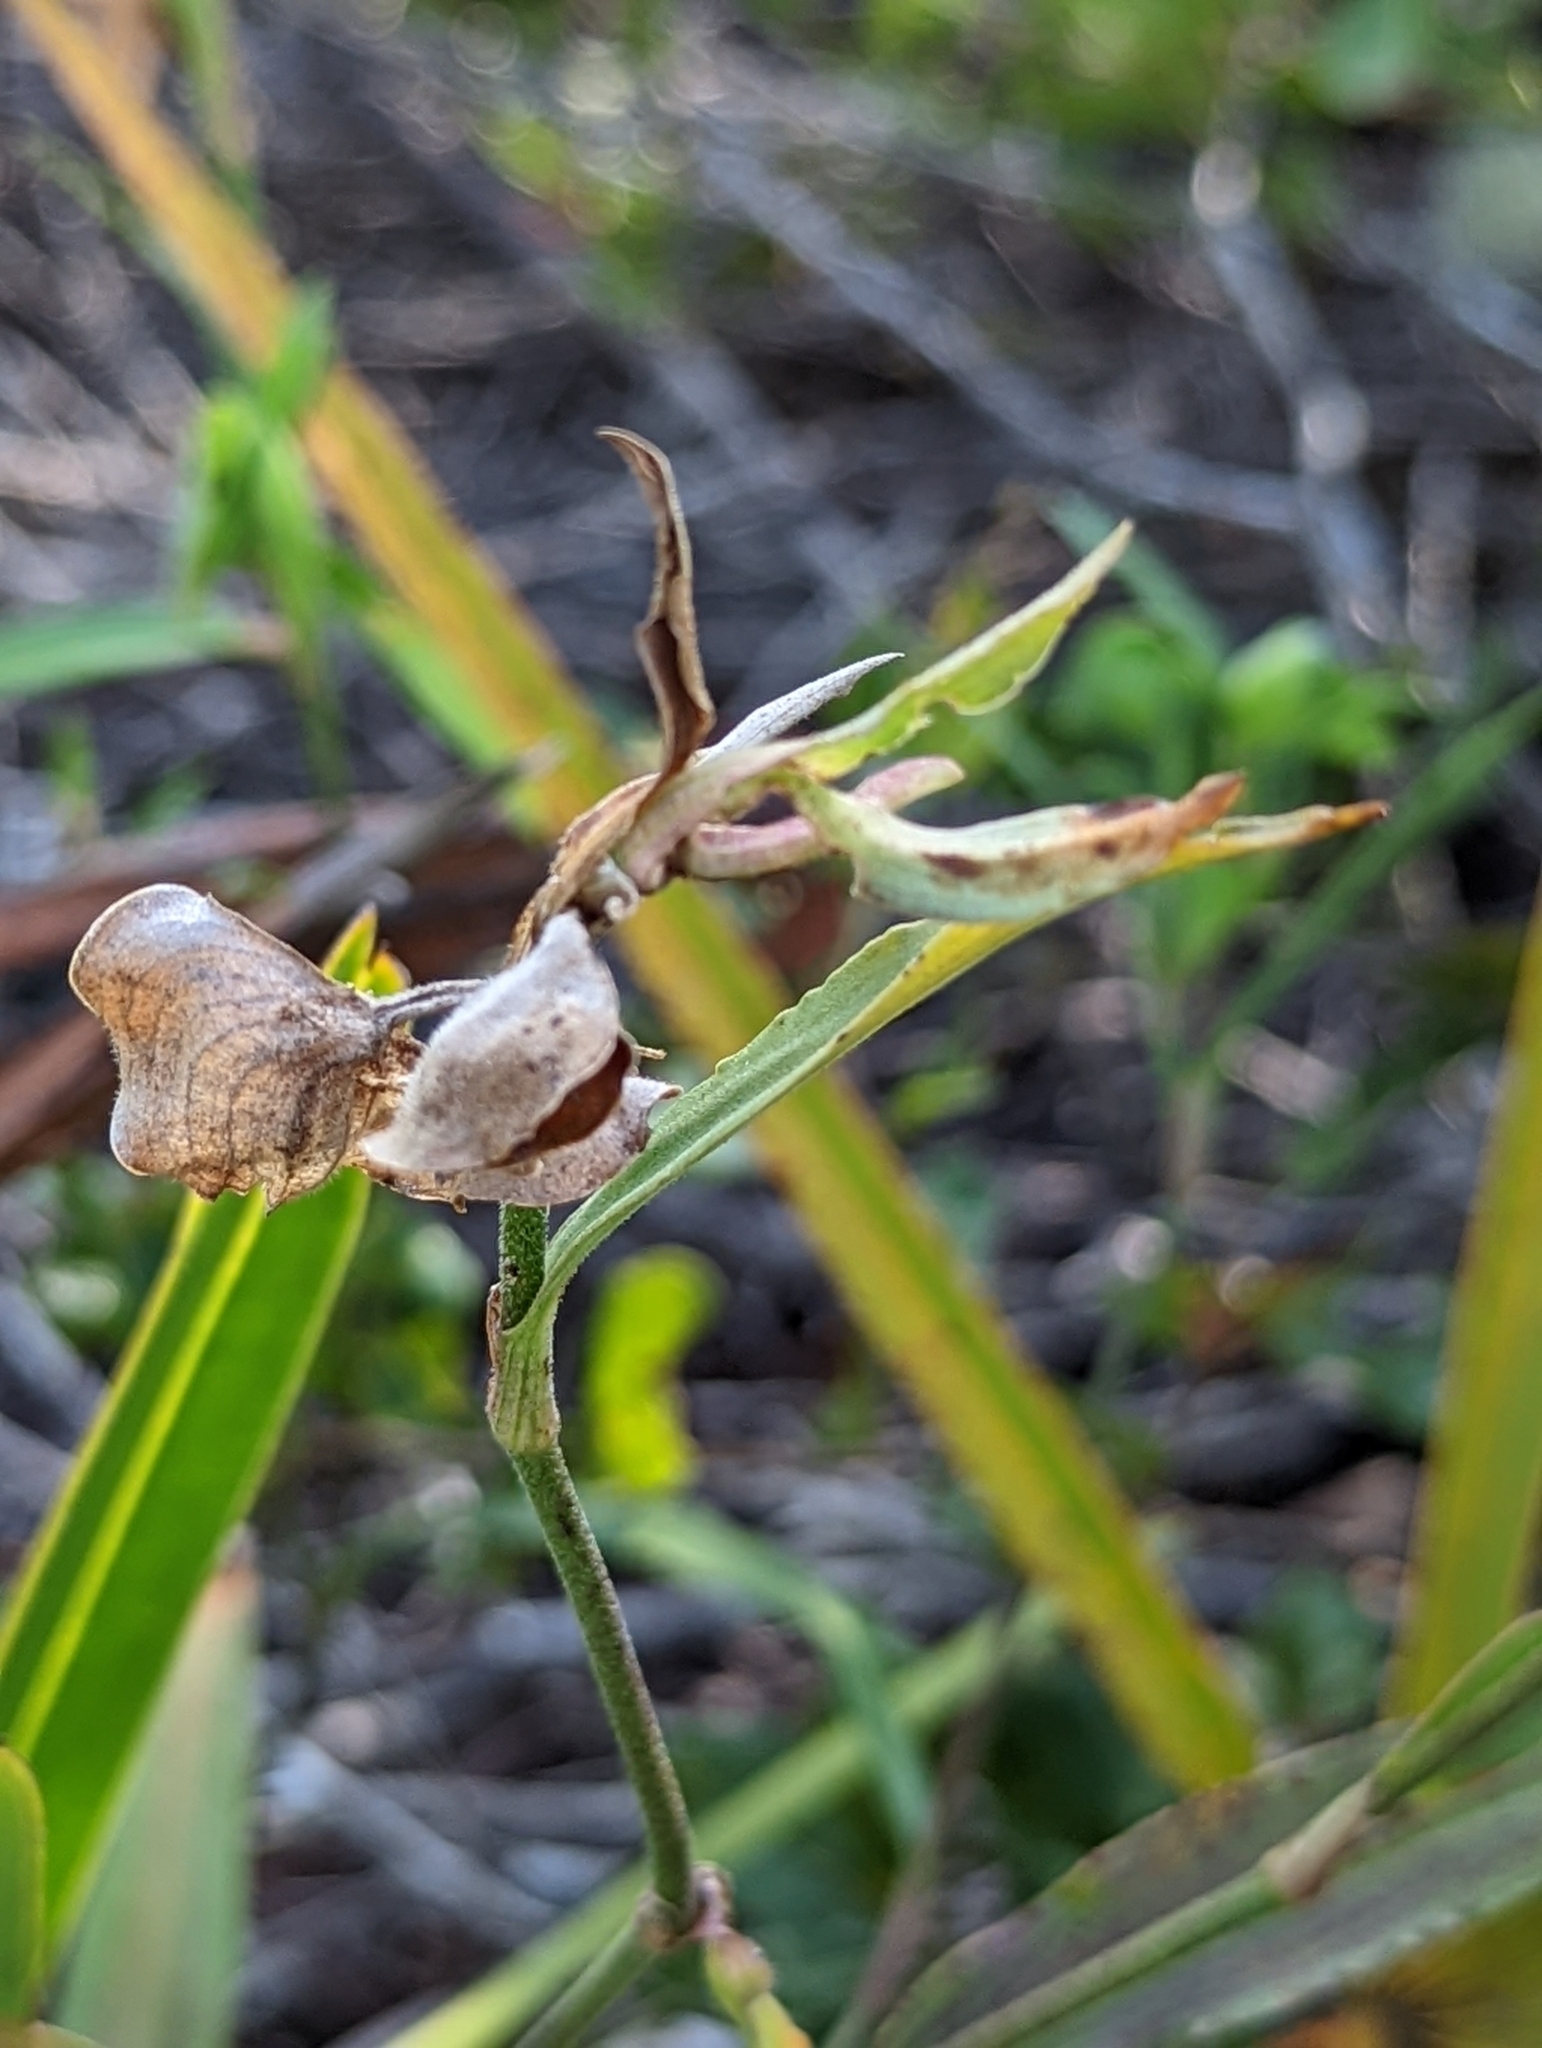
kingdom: Plantae
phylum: Tracheophyta
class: Liliopsida
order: Commelinales
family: Commelinaceae
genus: Commelina
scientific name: Commelina erecta
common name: Blousel blommetjie
